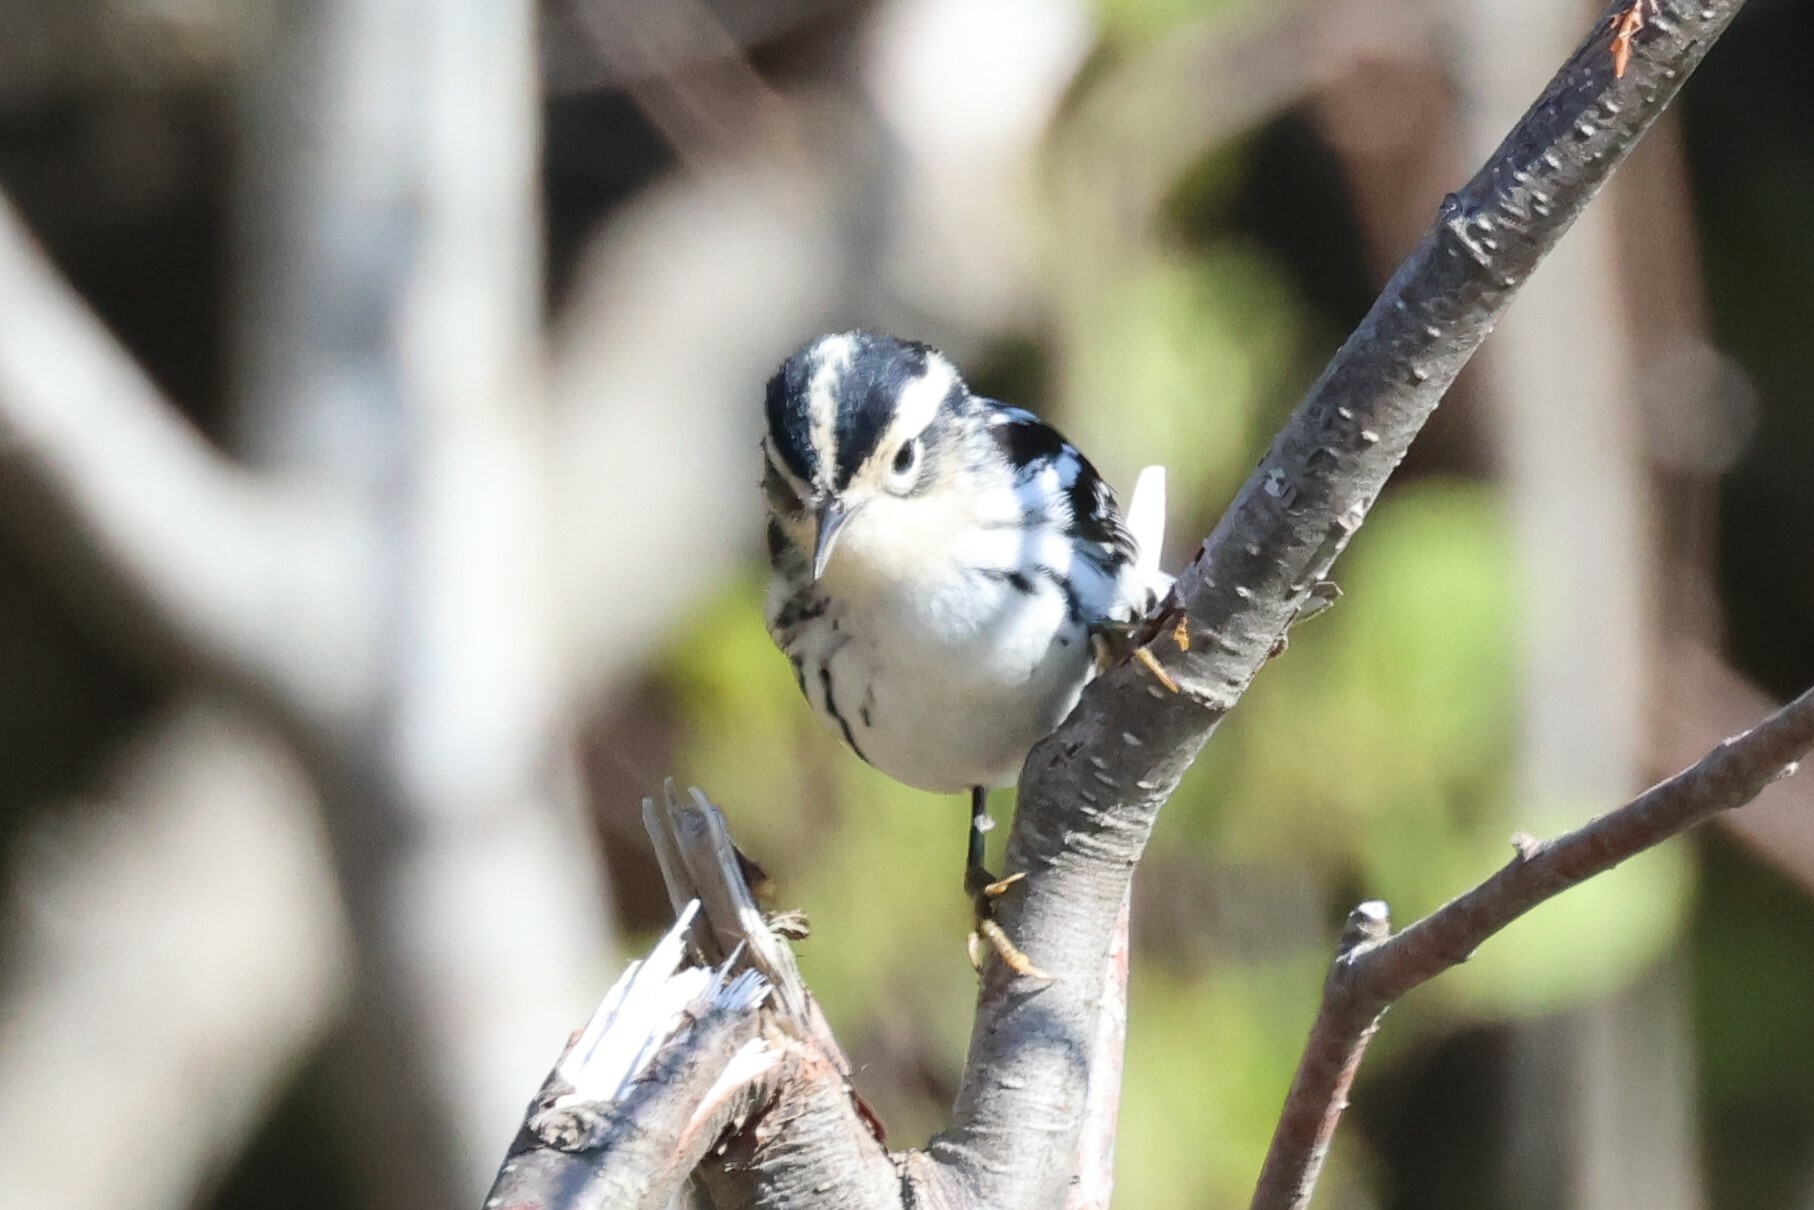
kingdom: Animalia
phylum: Chordata
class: Aves
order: Passeriformes
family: Parulidae
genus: Mniotilta
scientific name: Mniotilta varia
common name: Black-and-white warbler
